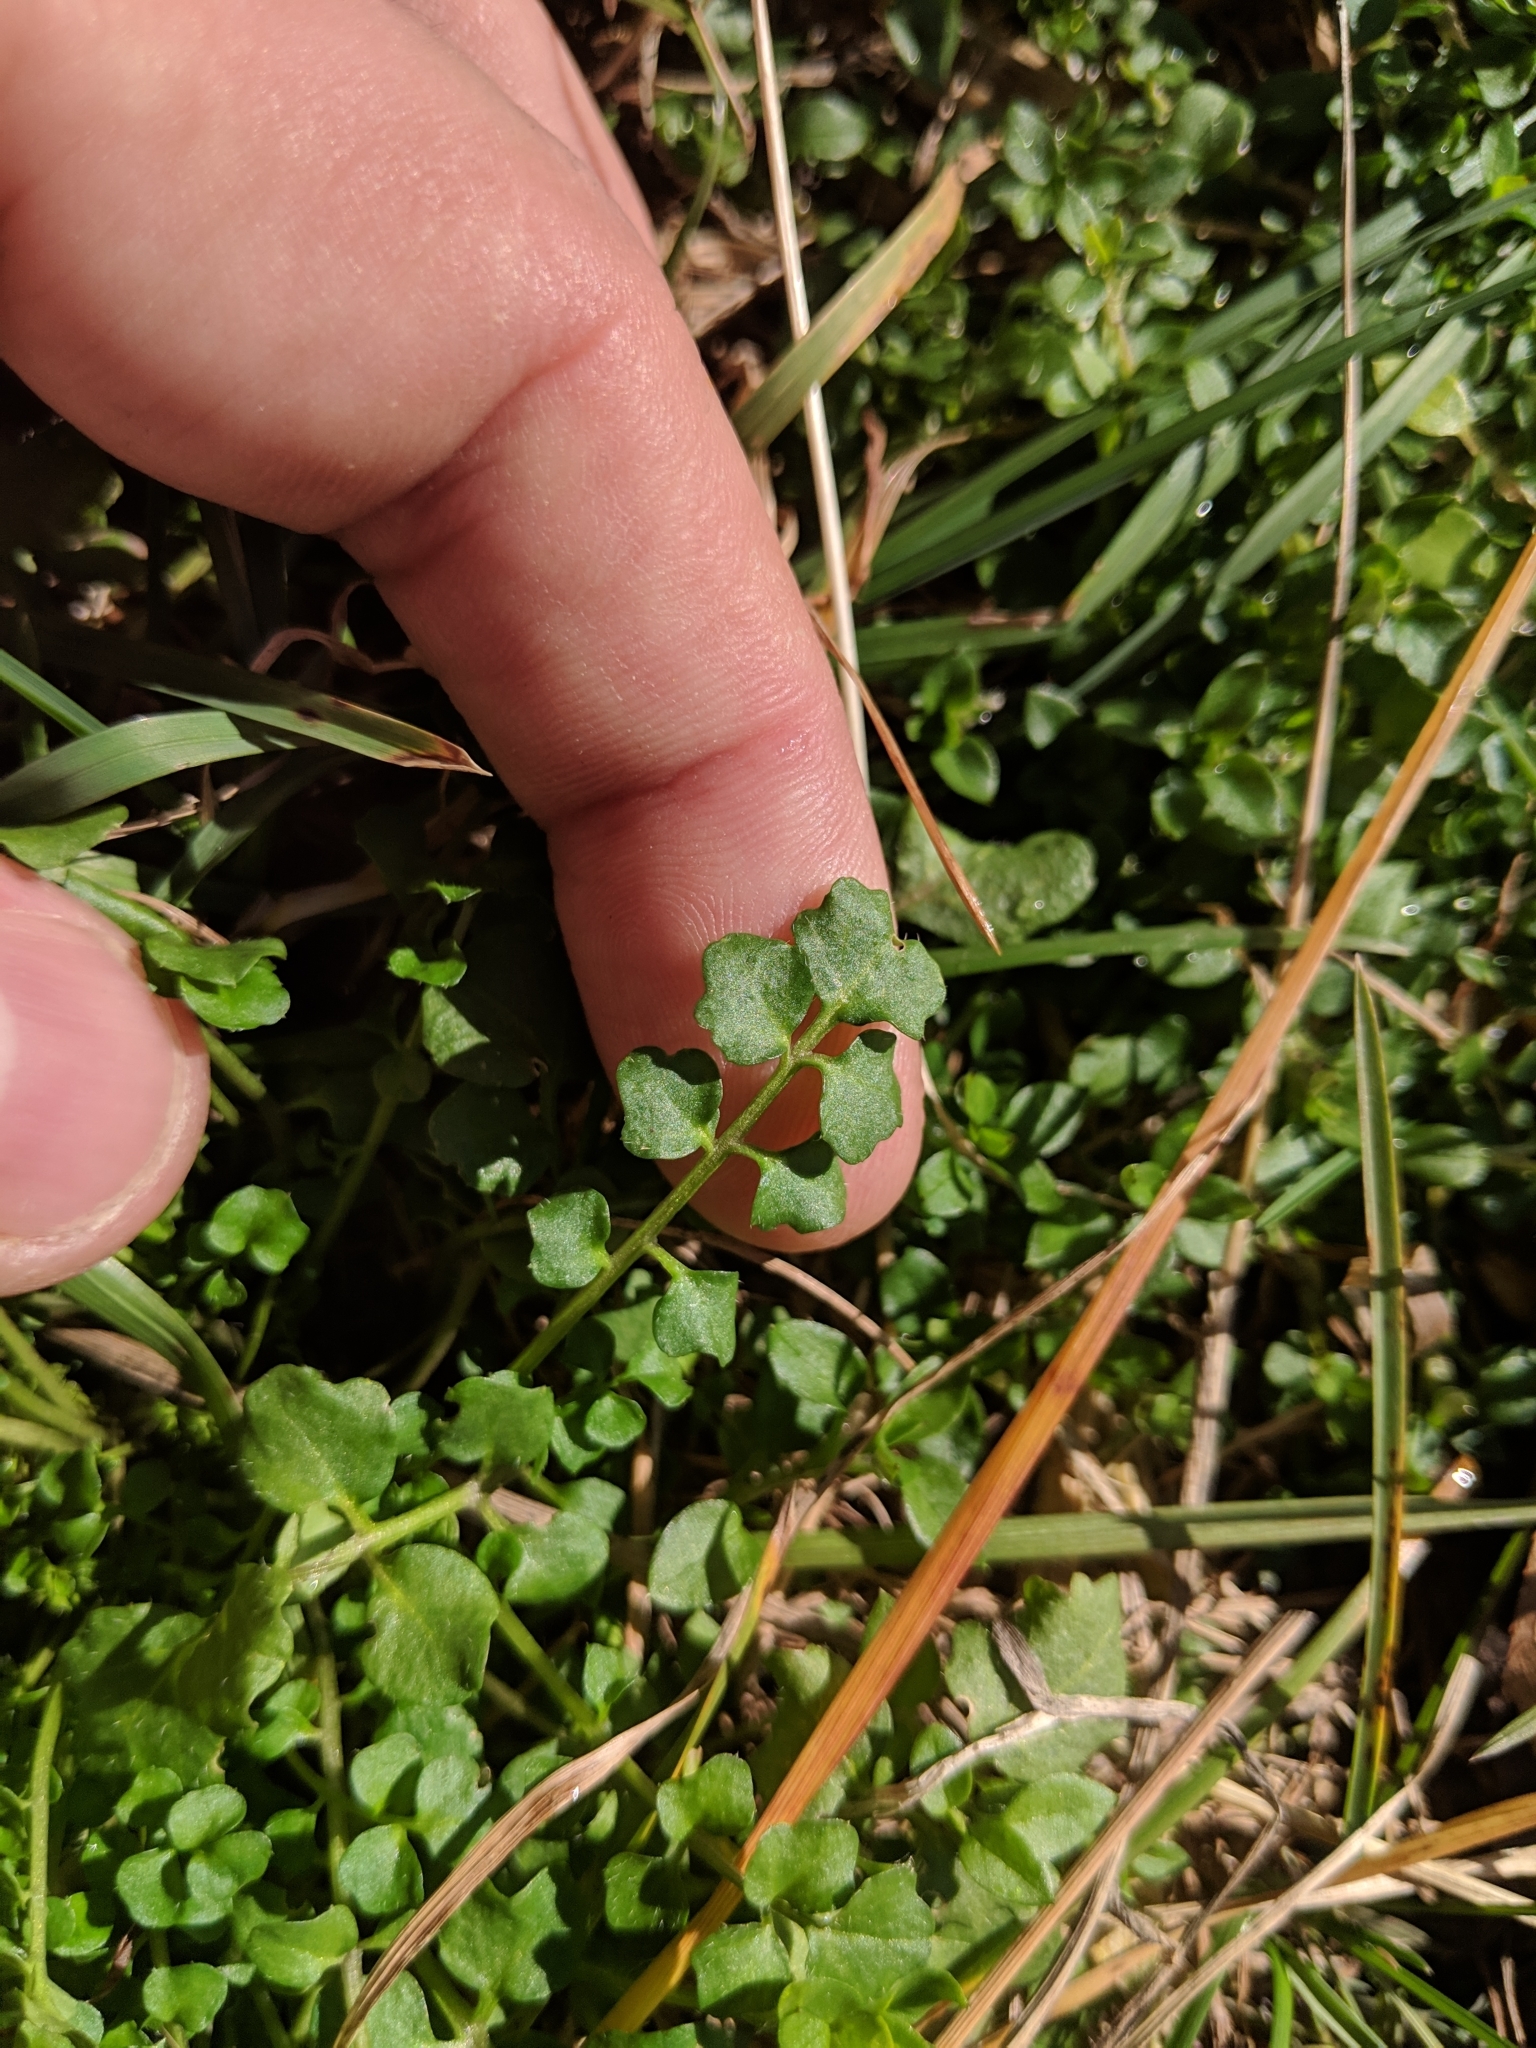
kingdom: Plantae
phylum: Tracheophyta
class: Magnoliopsida
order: Brassicales
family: Brassicaceae
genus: Cardamine
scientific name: Cardamine hirsuta
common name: Hairy bittercress
